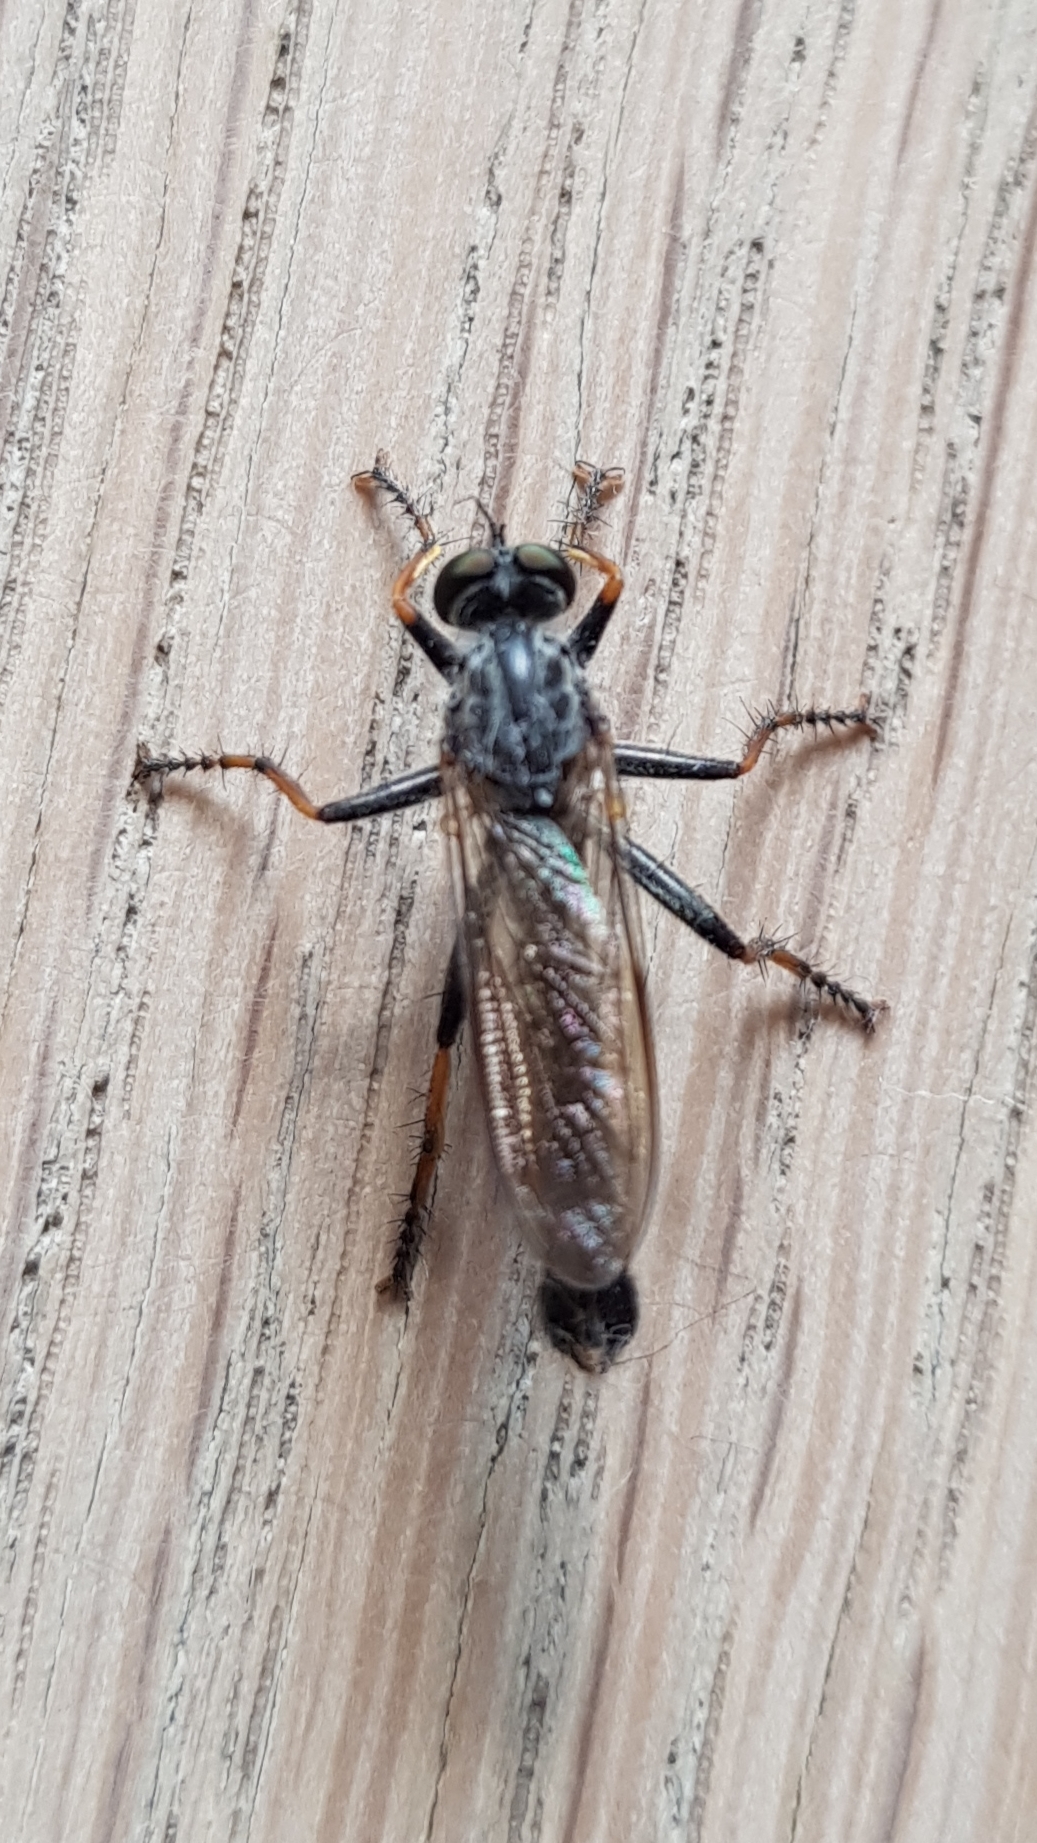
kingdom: Animalia
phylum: Arthropoda
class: Insecta
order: Diptera
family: Asilidae
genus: Paritamus
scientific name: Paritamus geniculatus
